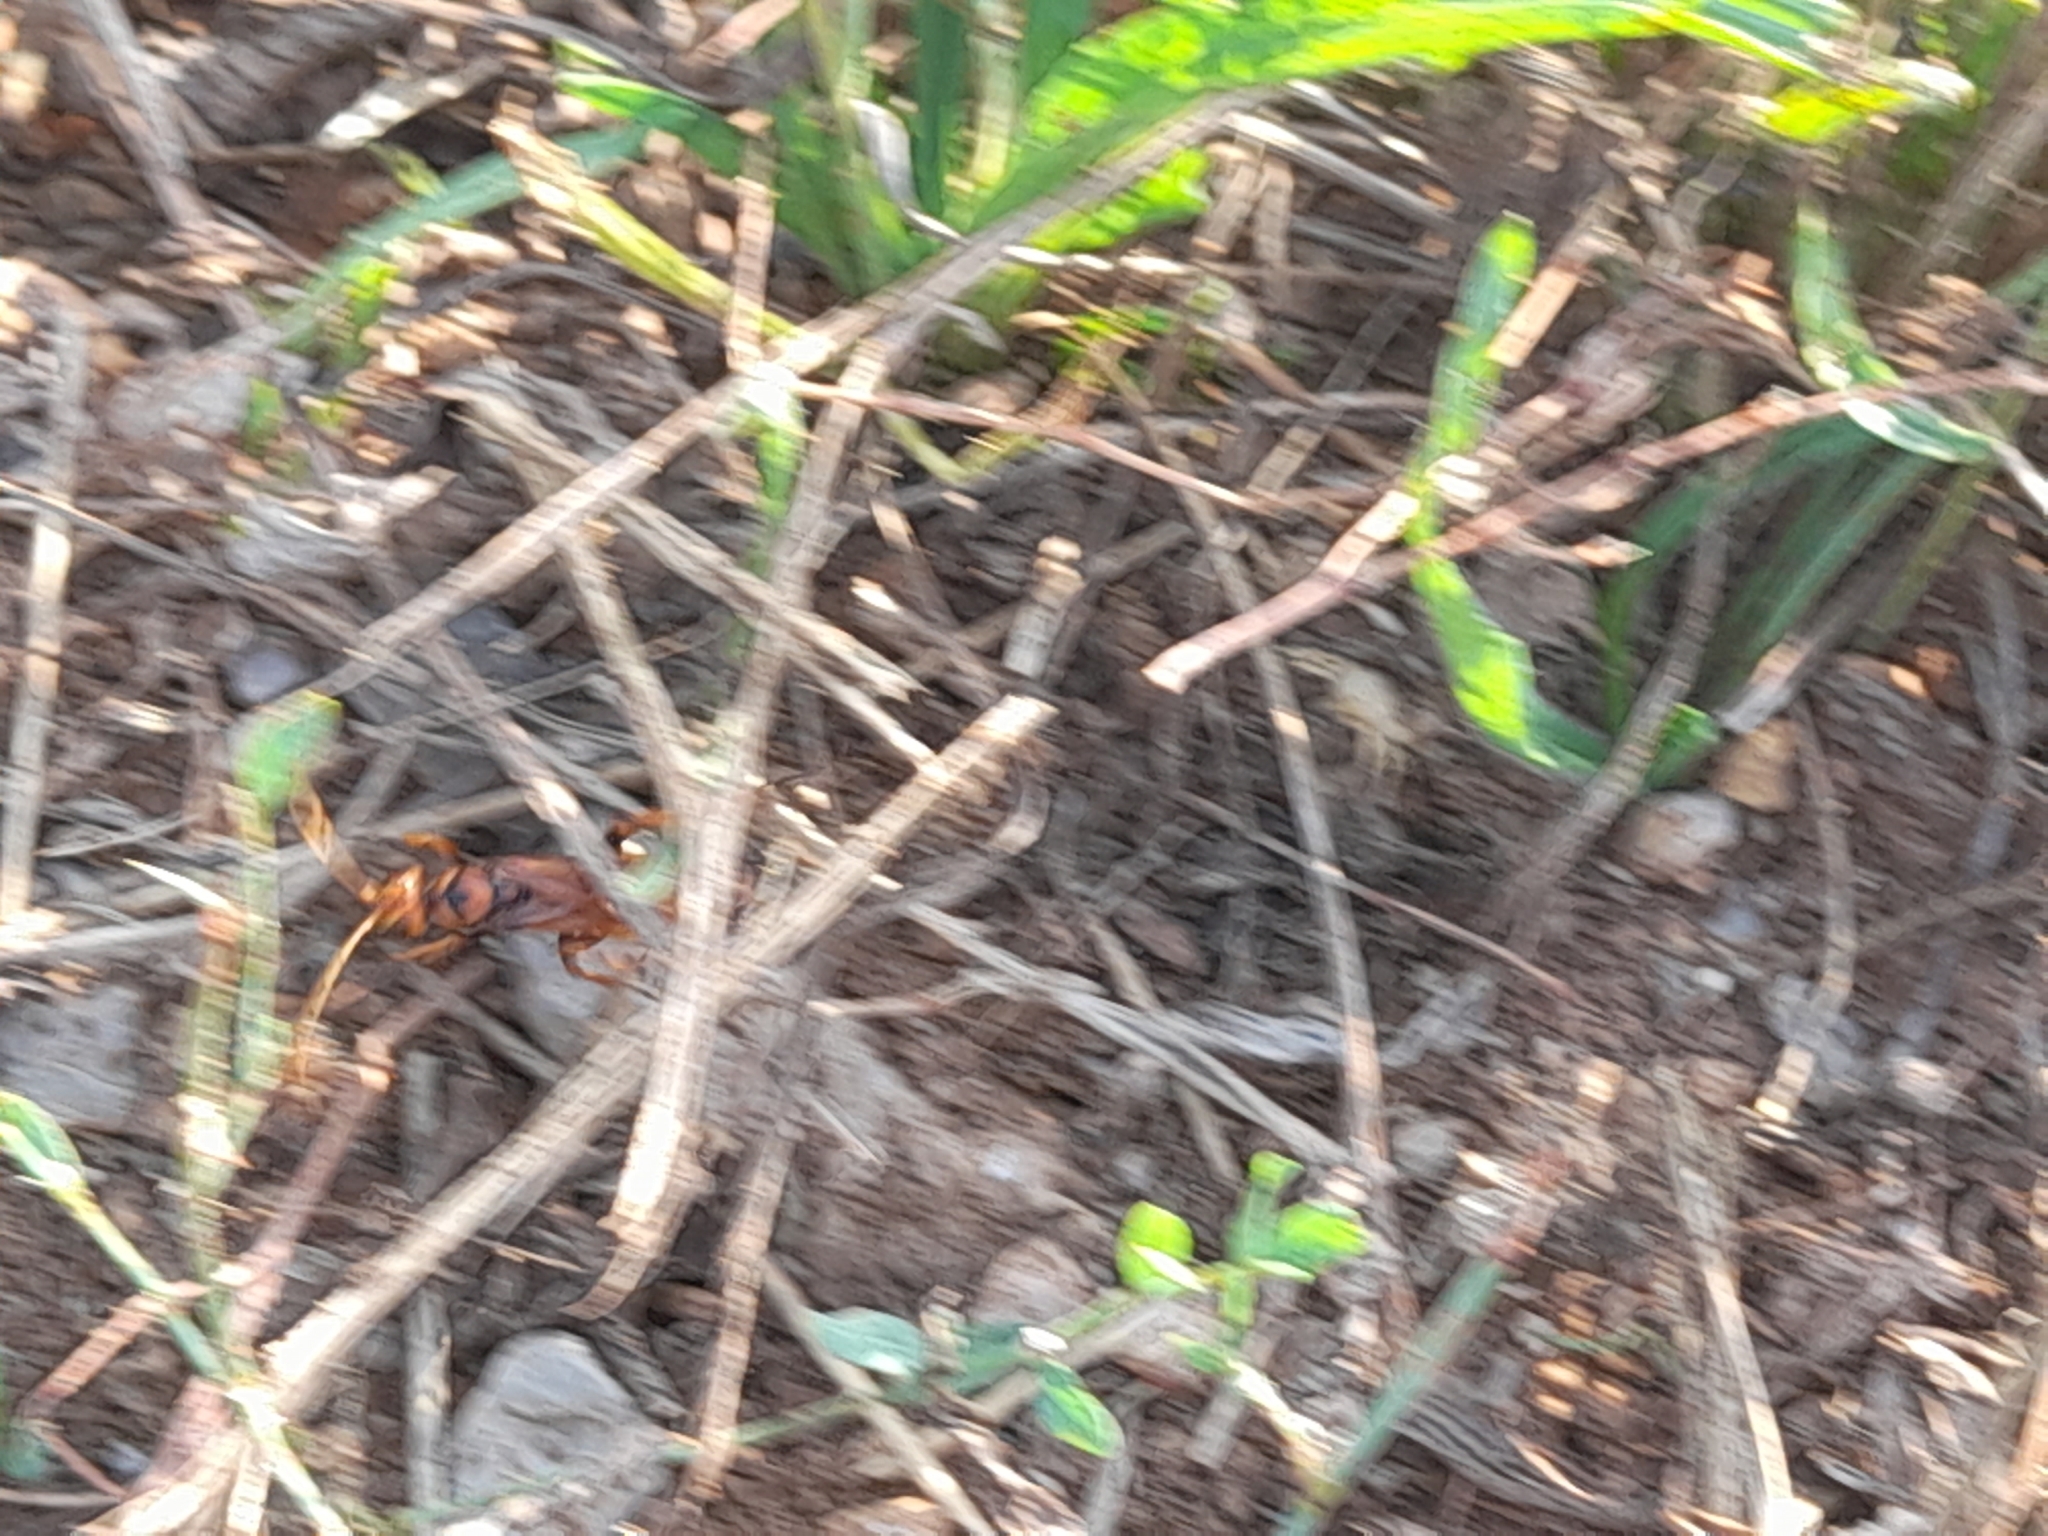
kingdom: Animalia
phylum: Arthropoda
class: Insecta
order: Hymenoptera
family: Pompilidae
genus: Cryptocheilus
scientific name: Cryptocheilus alternatus
